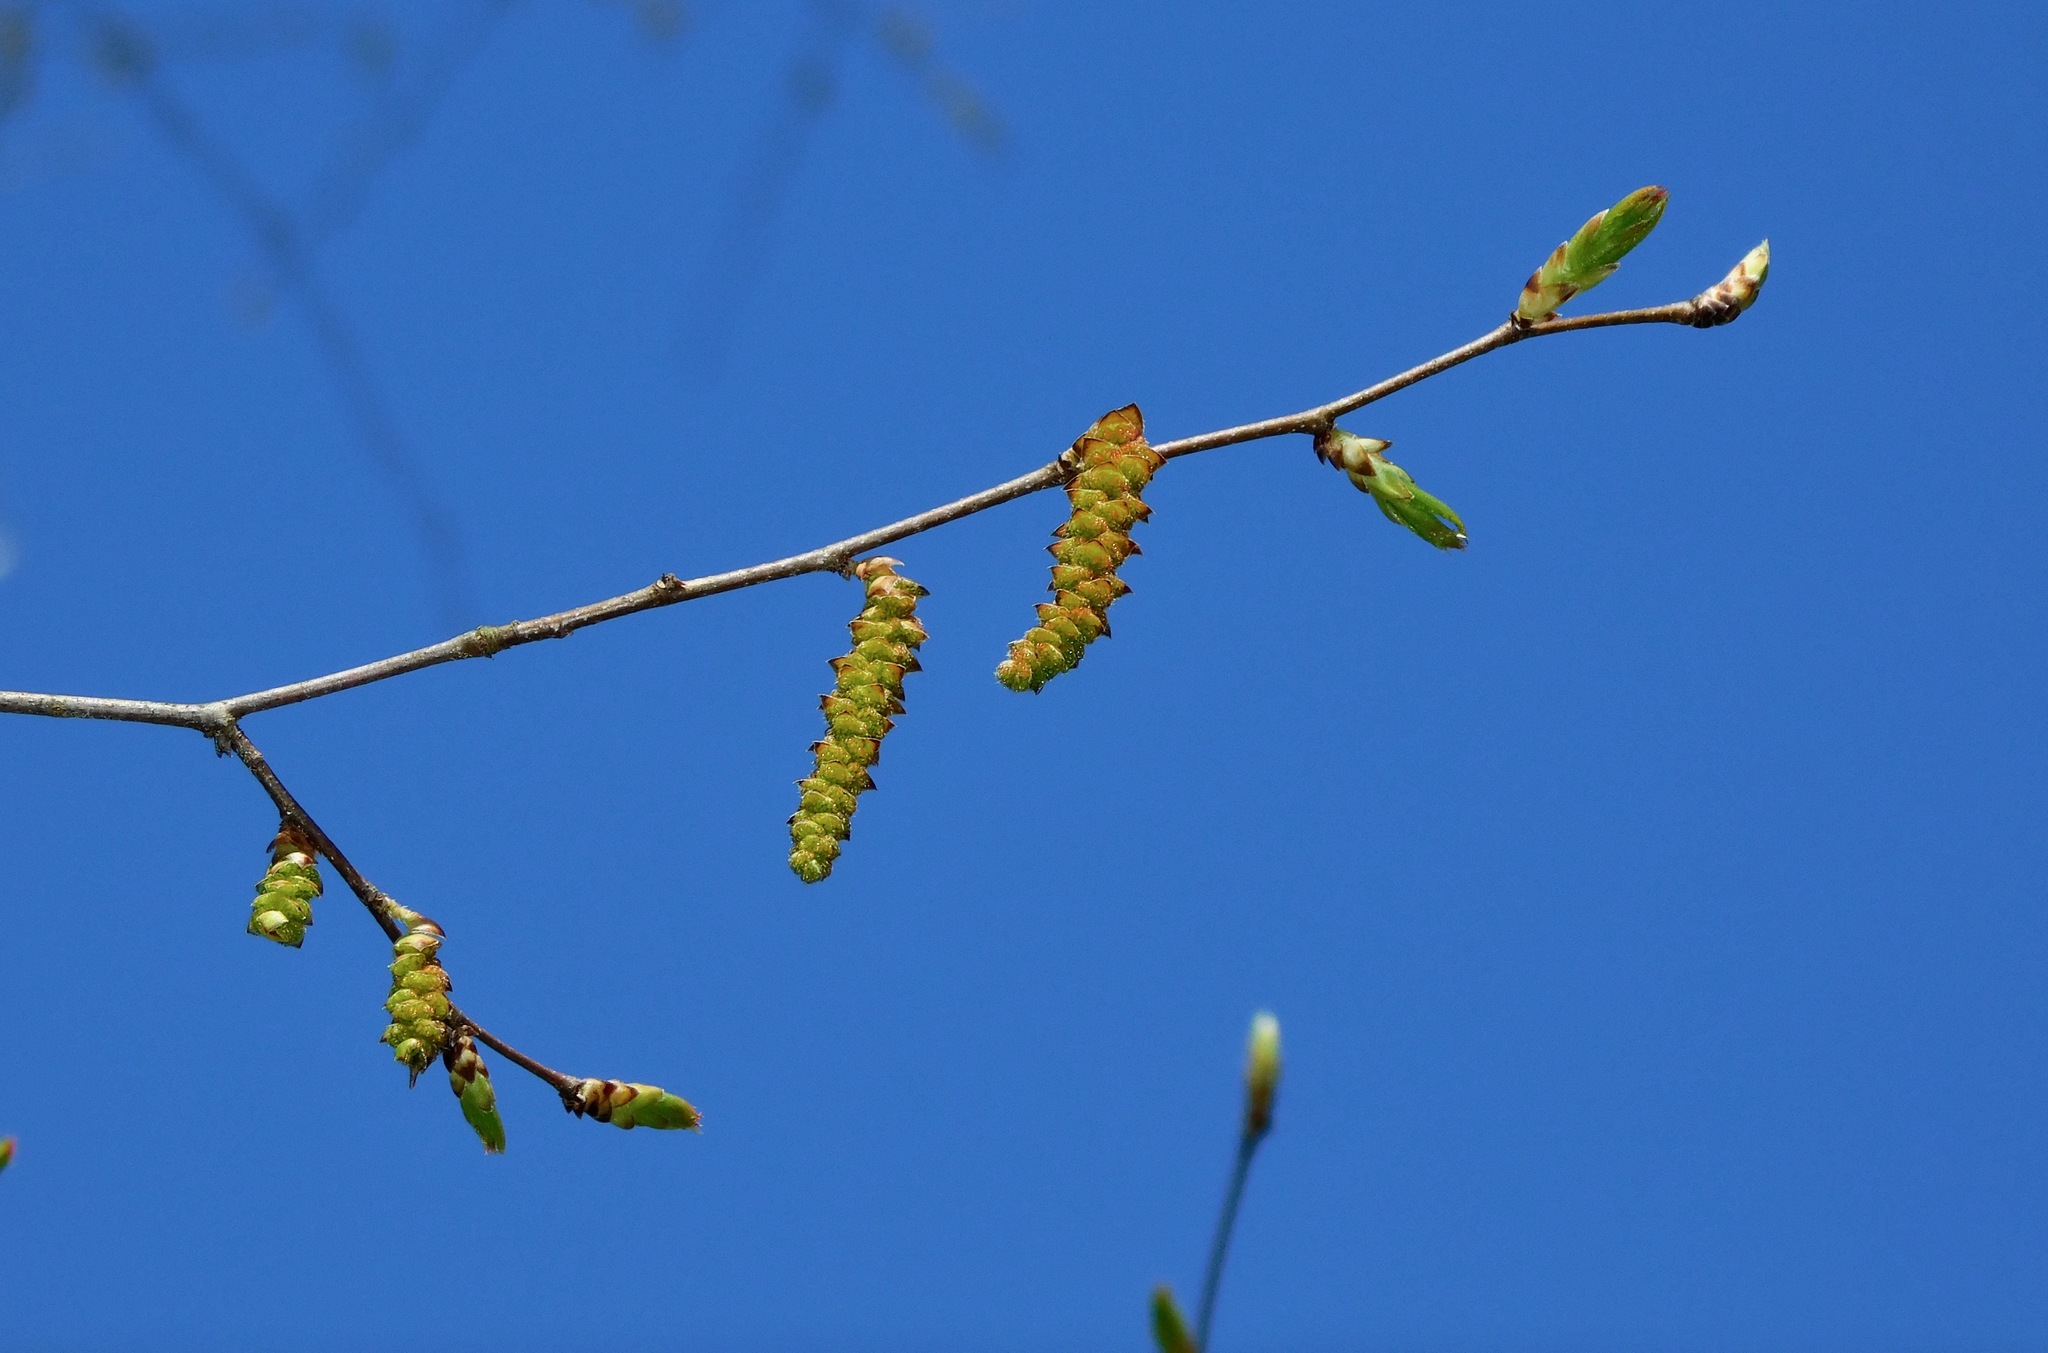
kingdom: Plantae
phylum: Tracheophyta
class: Magnoliopsida
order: Fagales
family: Betulaceae
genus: Carpinus
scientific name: Carpinus caroliniana
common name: American hornbeam
